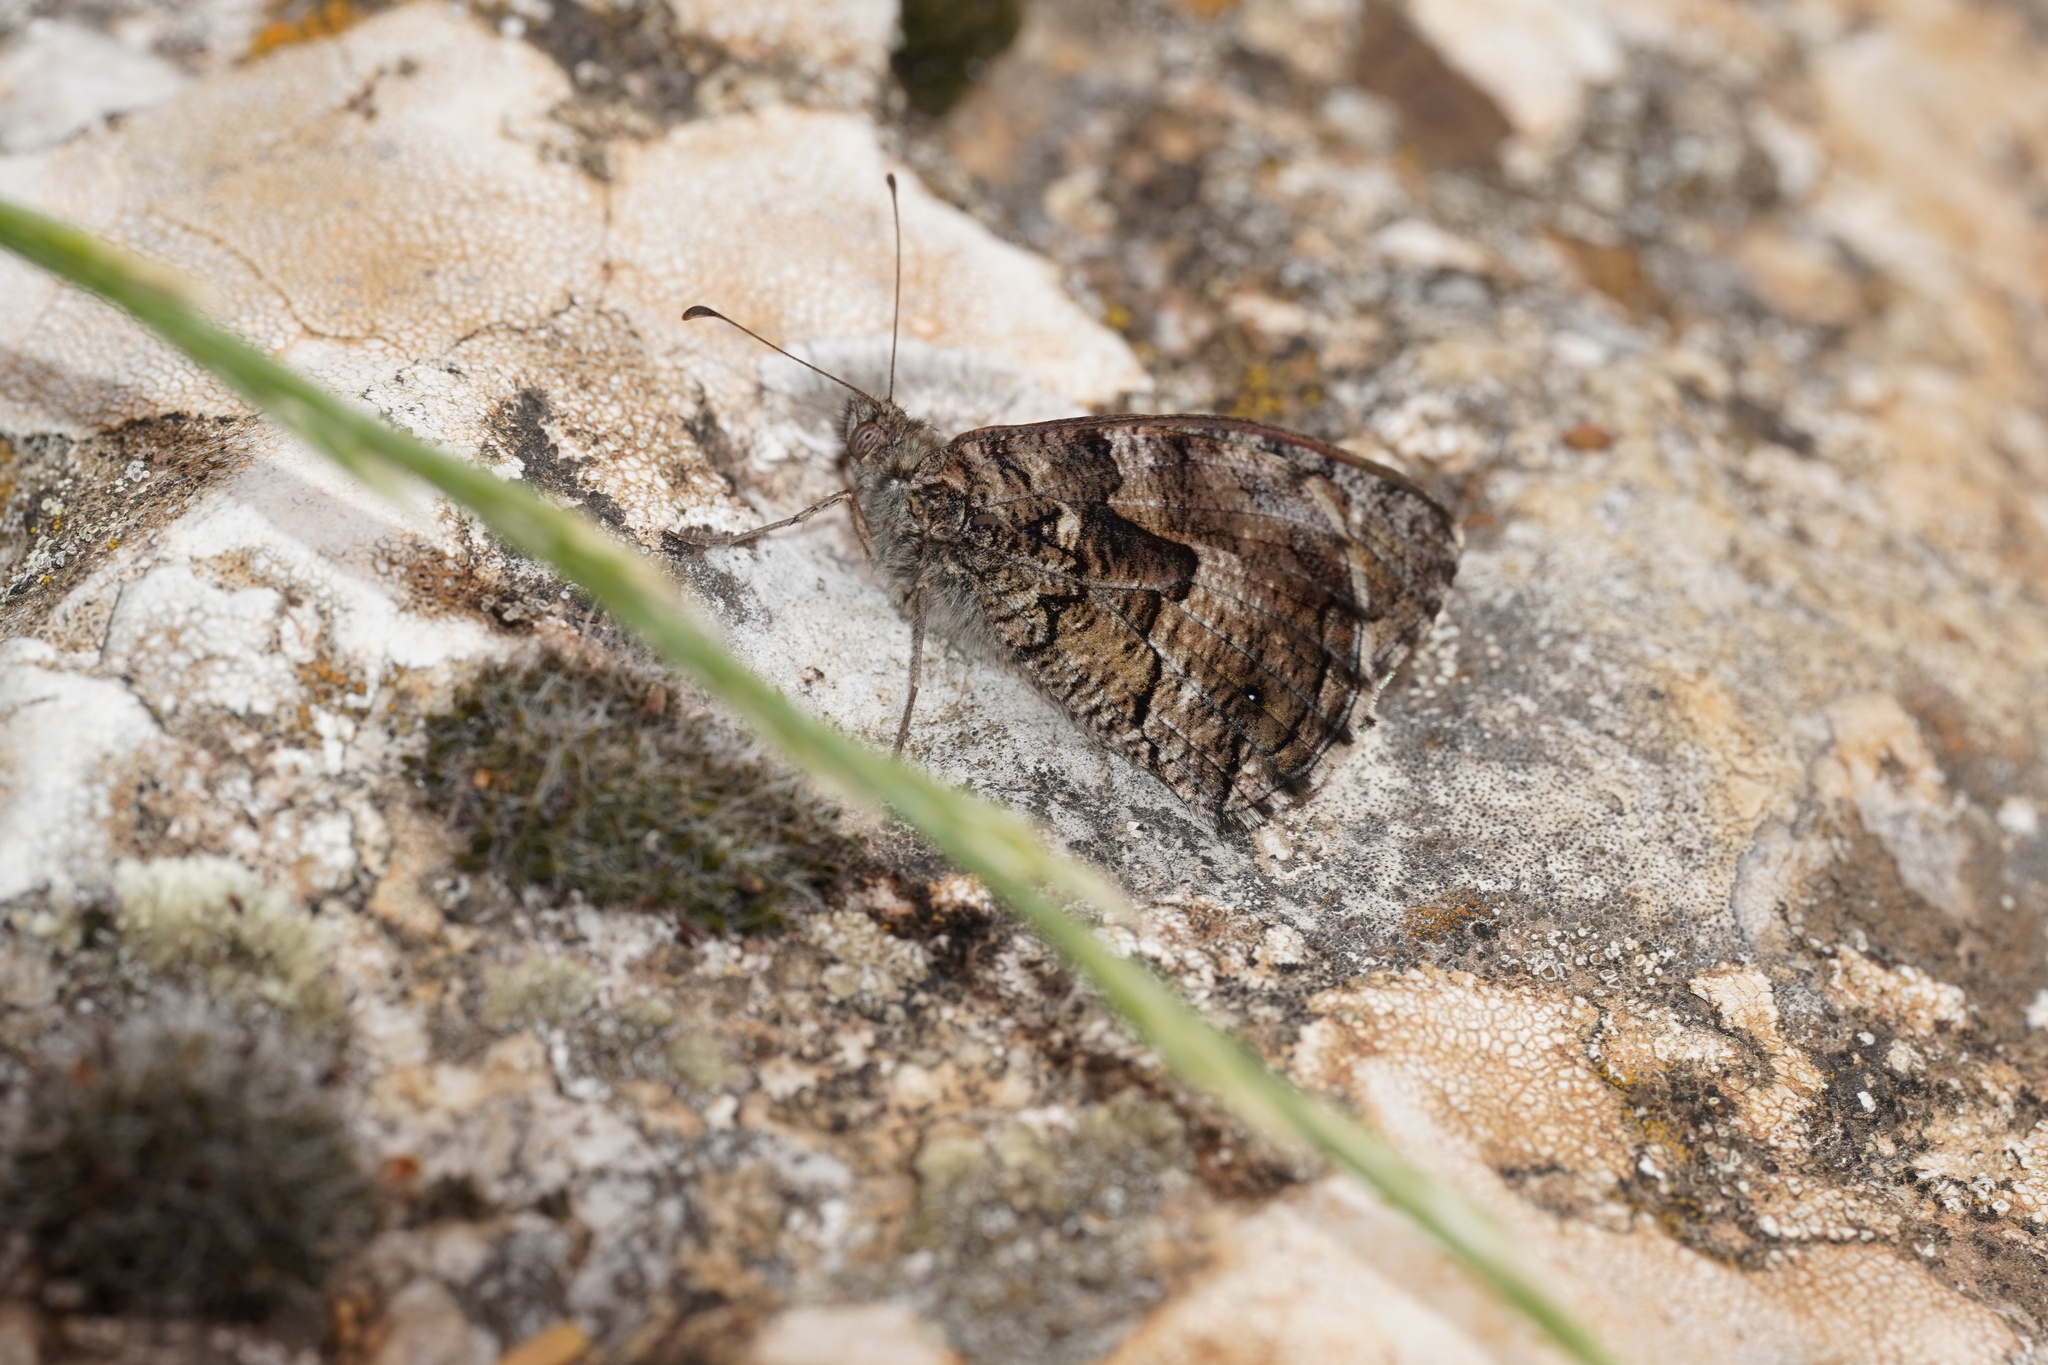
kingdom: Animalia
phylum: Arthropoda
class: Insecta
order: Lepidoptera
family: Nymphalidae
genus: Hipparchia
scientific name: Hipparchia semele
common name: Grayling
